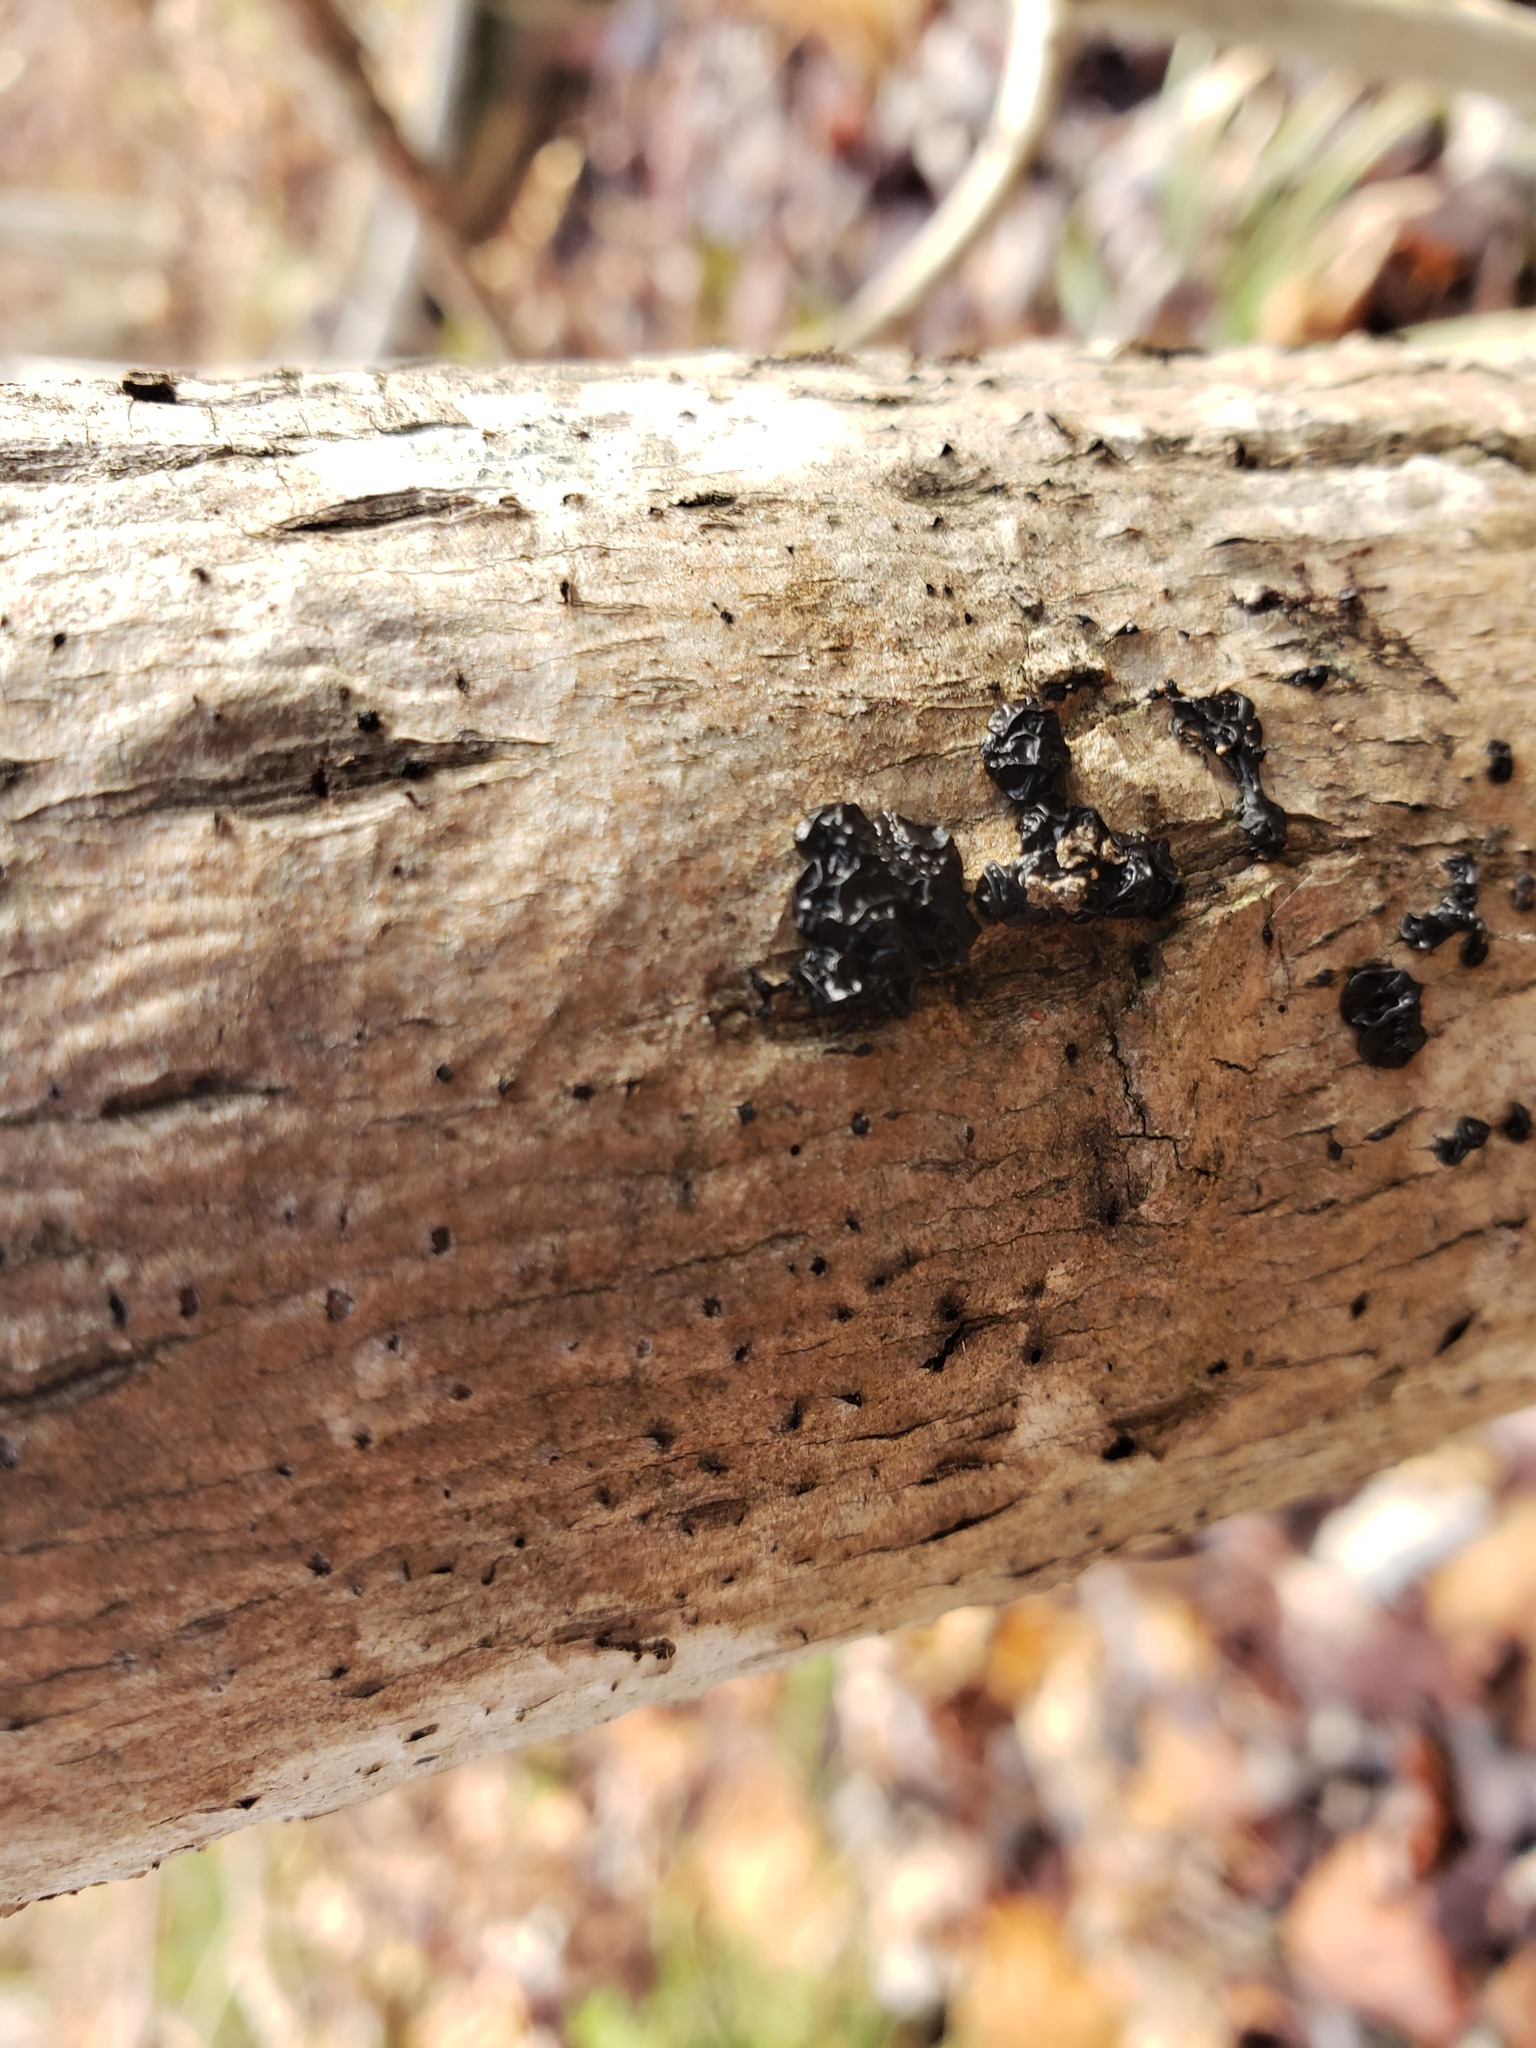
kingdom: Fungi
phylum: Basidiomycota
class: Agaricomycetes
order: Auriculariales
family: Auriculariaceae
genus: Exidia
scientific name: Exidia nigricans
